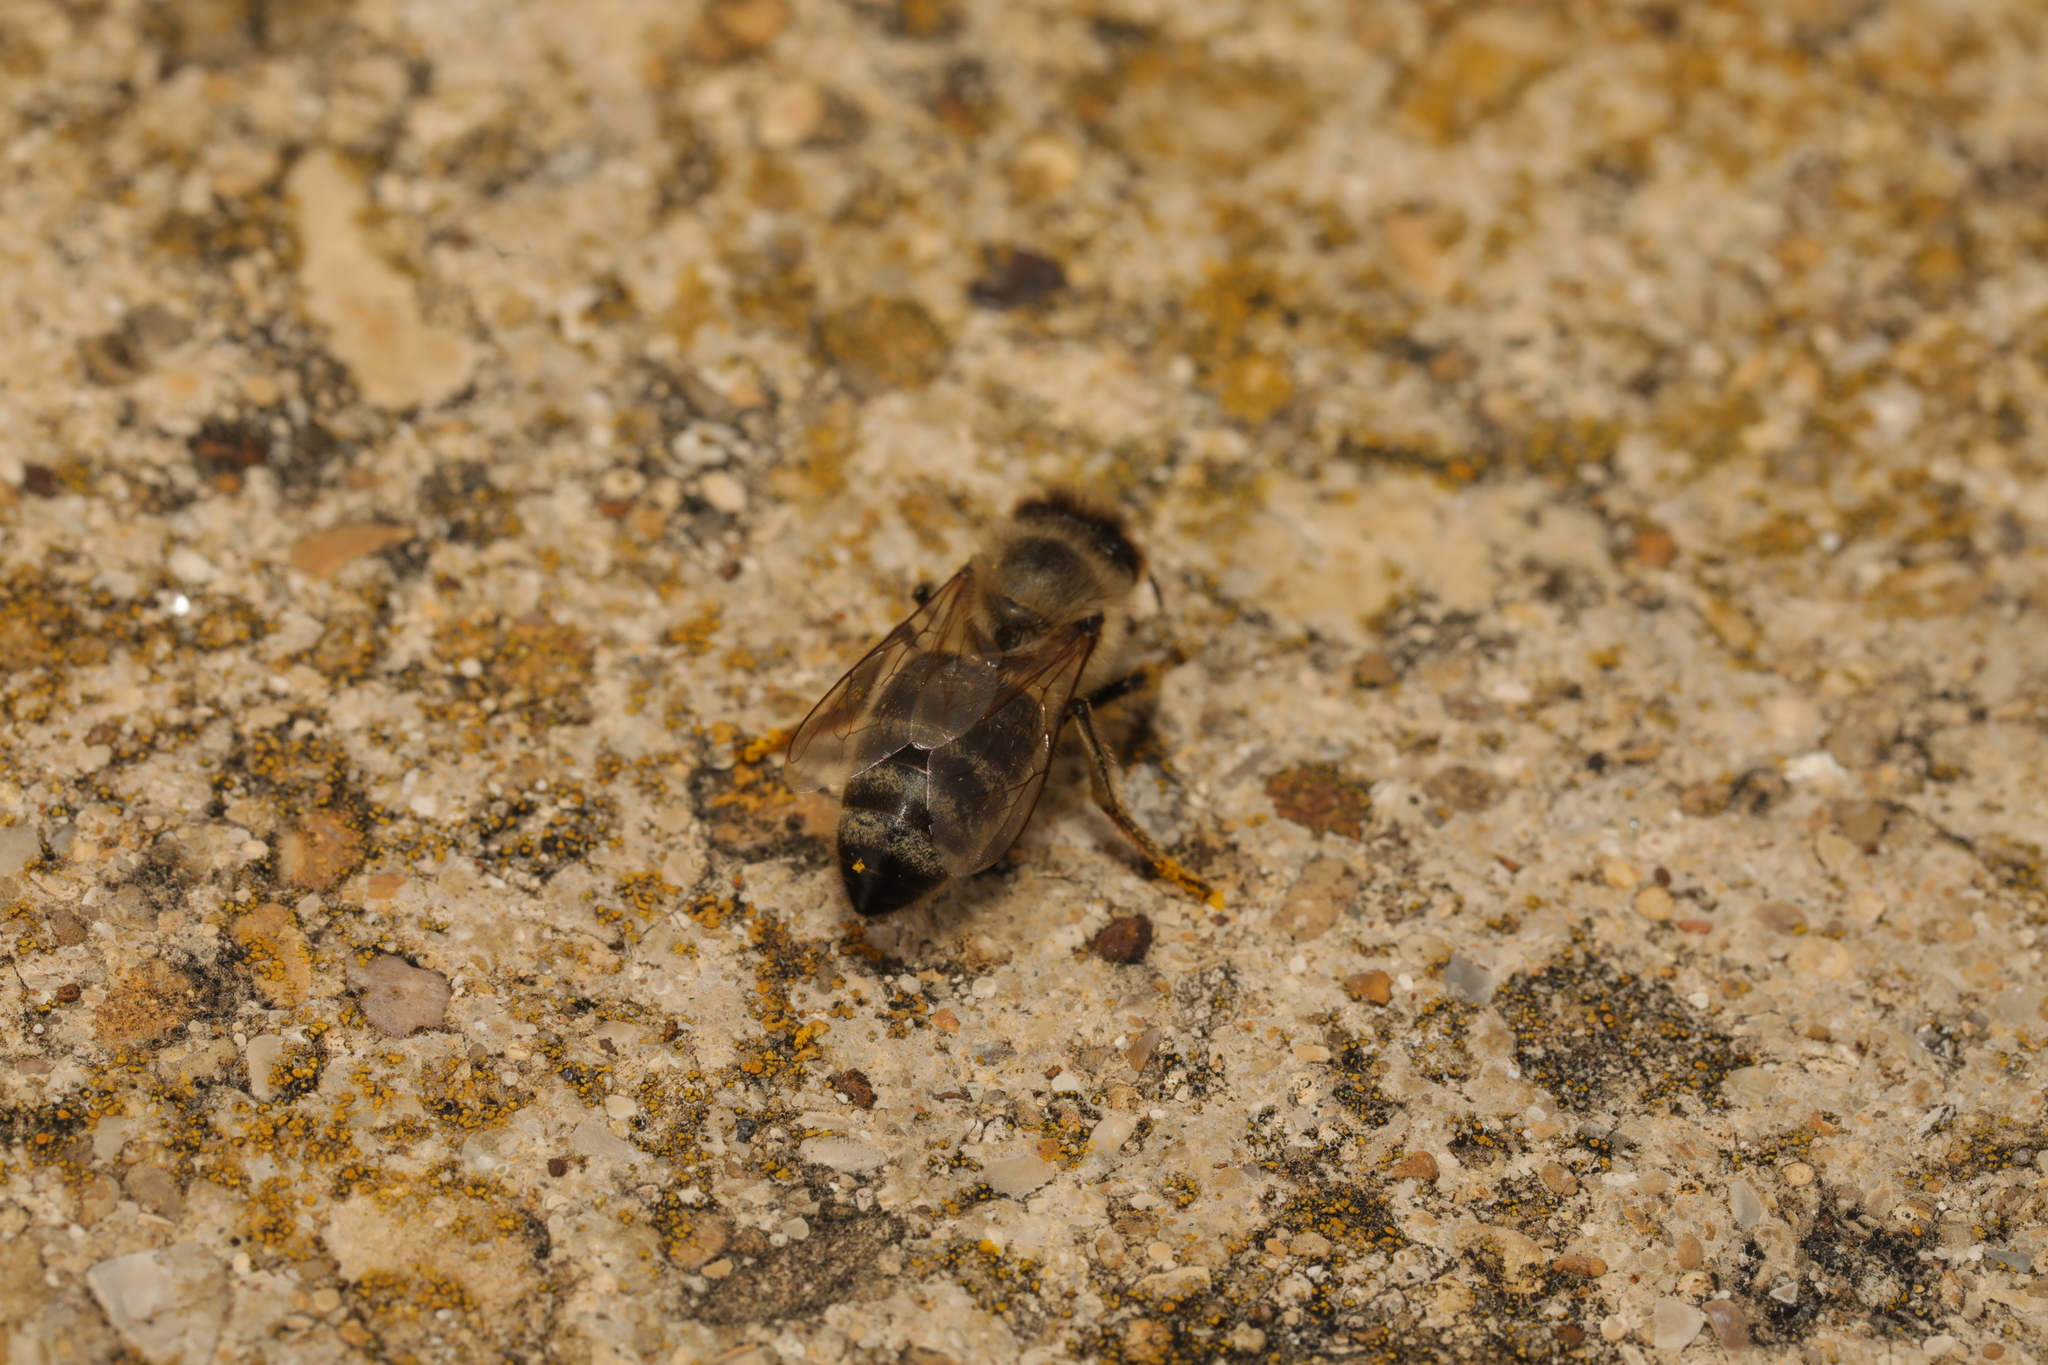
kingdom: Animalia
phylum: Arthropoda
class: Insecta
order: Hymenoptera
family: Apidae
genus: Apis
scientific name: Apis mellifera
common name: Honey bee
